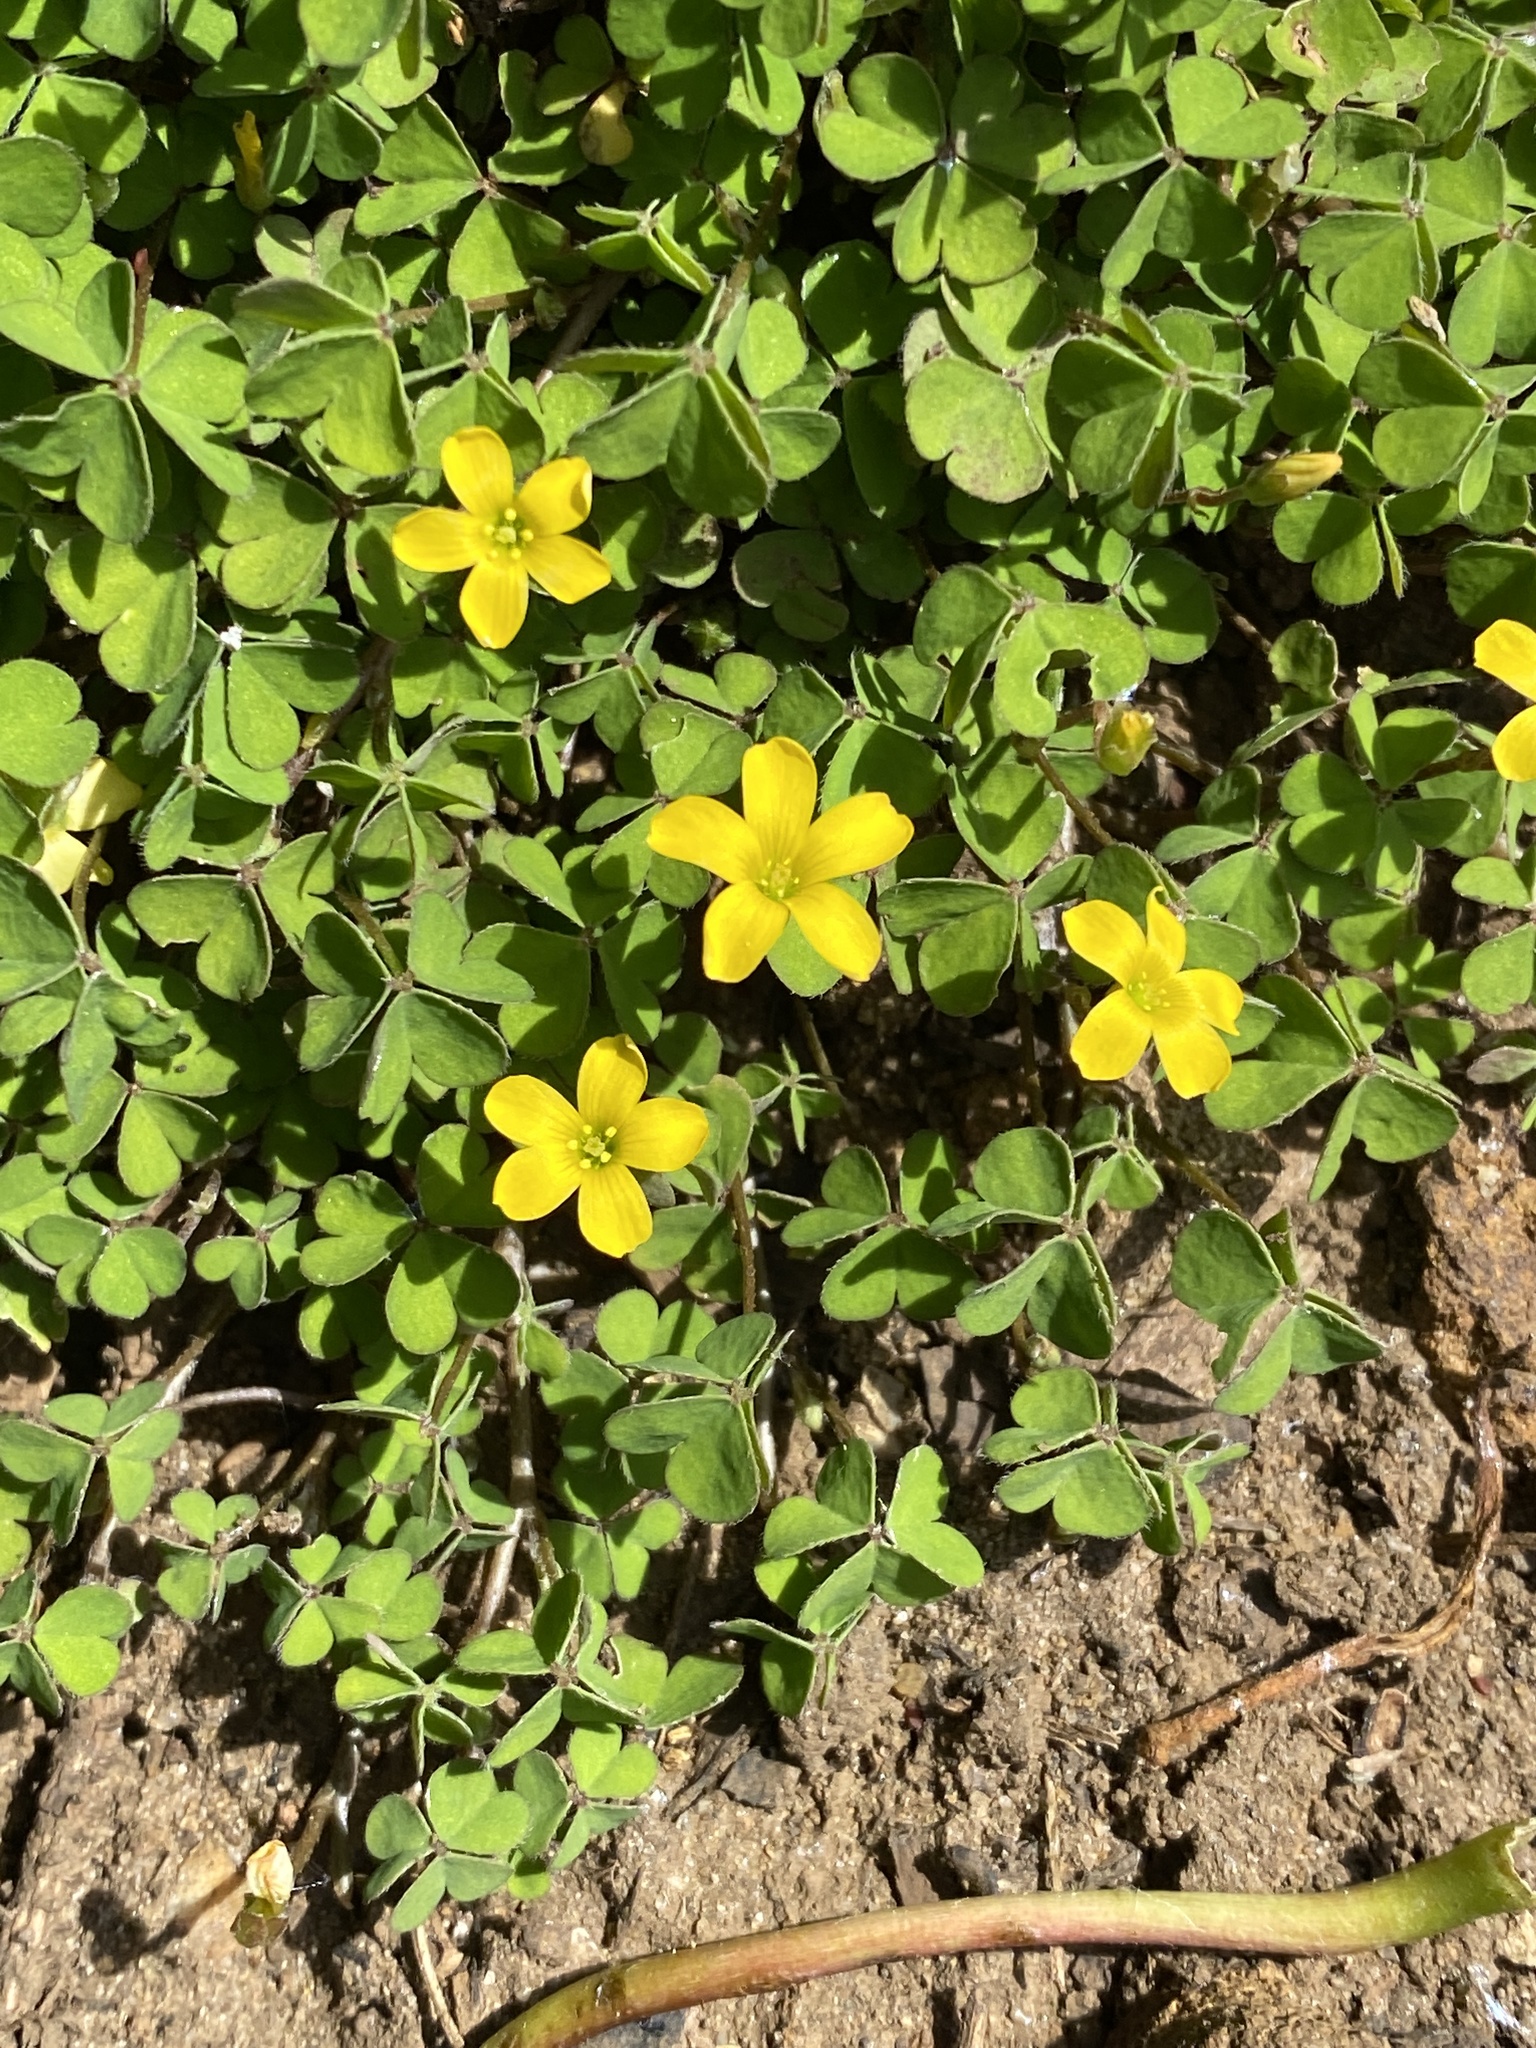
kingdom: Plantae
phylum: Tracheophyta
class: Magnoliopsida
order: Oxalidales
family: Oxalidaceae
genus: Oxalis
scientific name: Oxalis corniculata
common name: Procumbent yellow-sorrel
